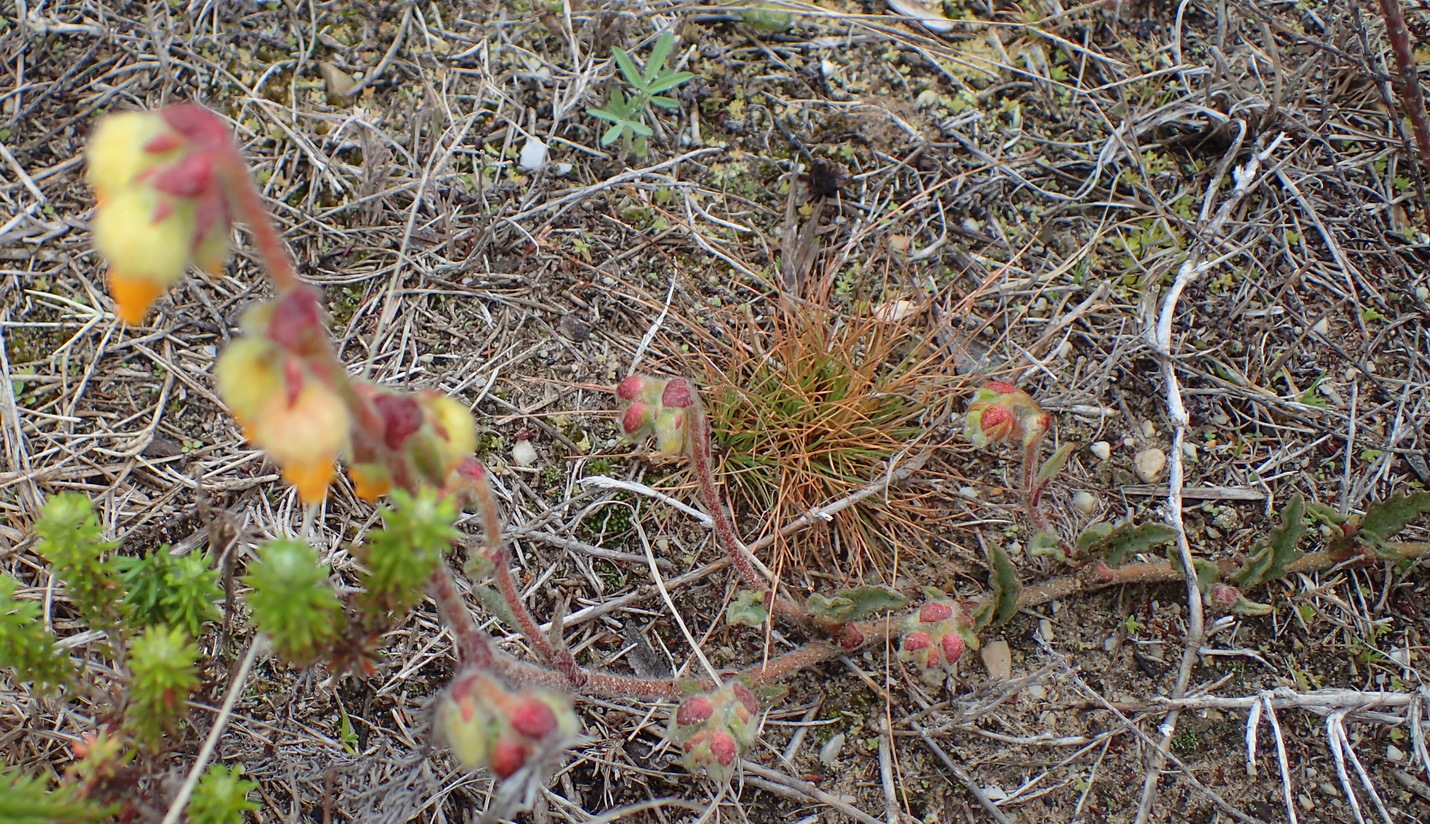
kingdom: Plantae
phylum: Tracheophyta
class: Magnoliopsida
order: Malvales
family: Malvaceae
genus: Hermannia
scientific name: Hermannia decumbens
